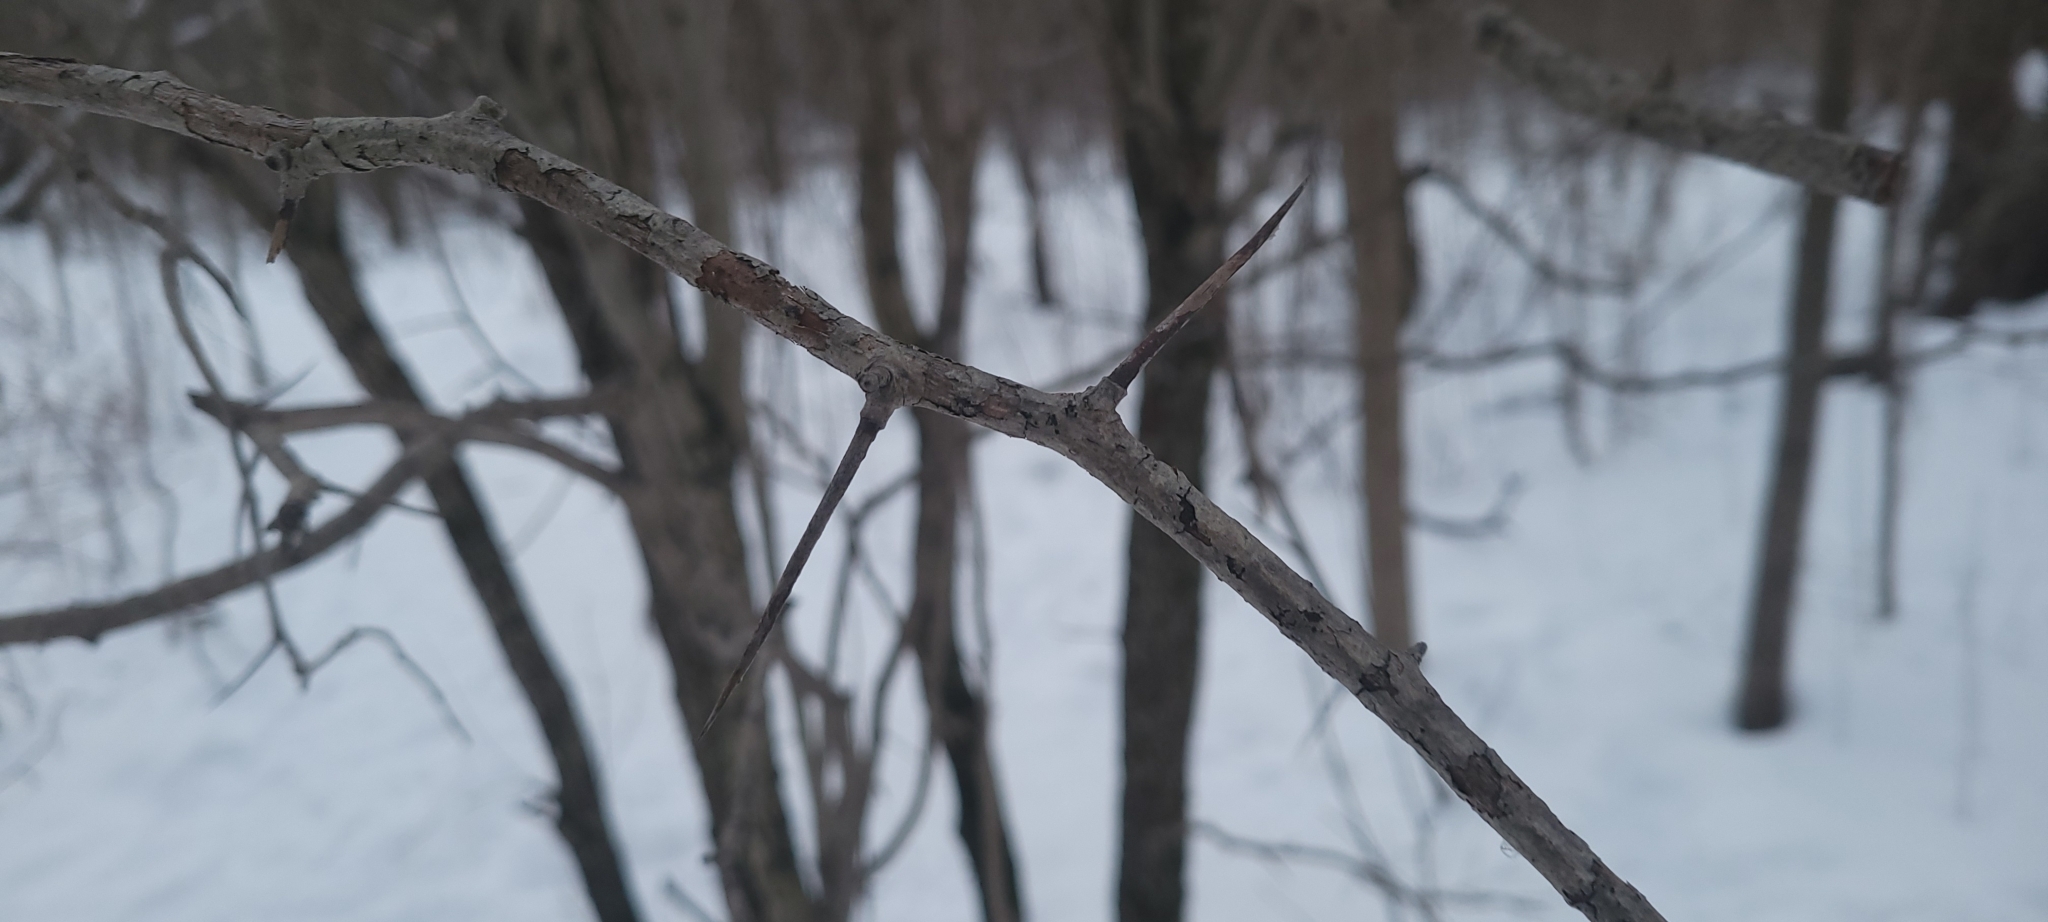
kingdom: Plantae
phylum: Tracheophyta
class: Magnoliopsida
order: Rosales
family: Rosaceae
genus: Crataegus
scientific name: Crataegus
